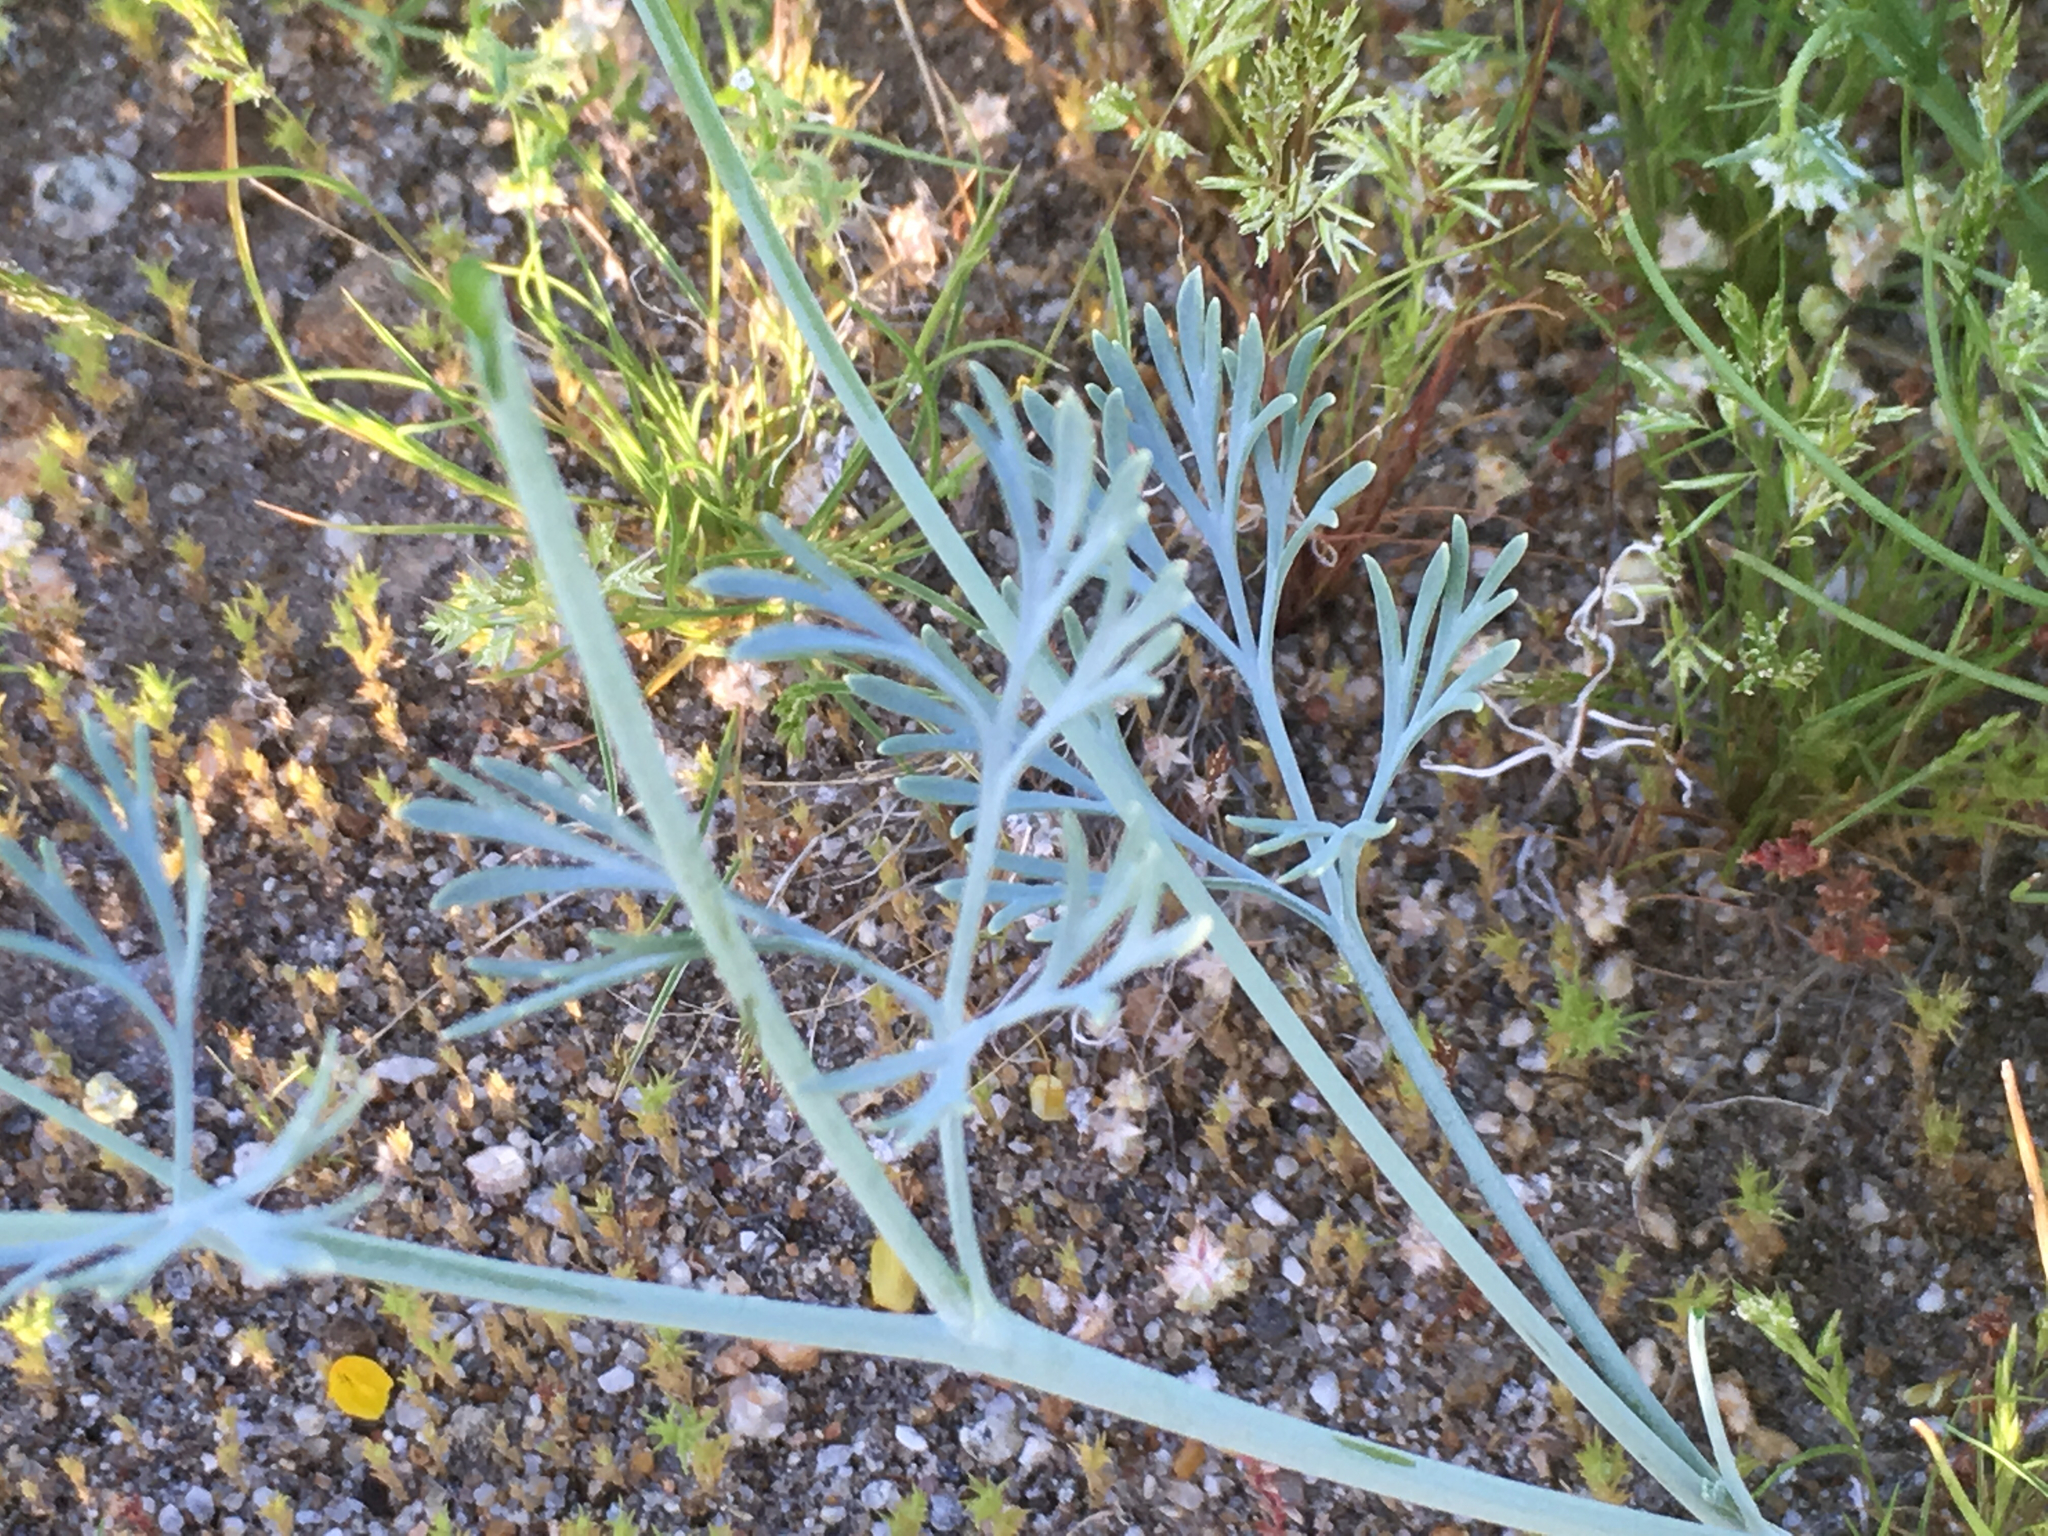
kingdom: Plantae
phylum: Tracheophyta
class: Magnoliopsida
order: Ranunculales
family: Papaveraceae
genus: Eschscholzia
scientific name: Eschscholzia minutiflora
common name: Small-flower california-poppy
